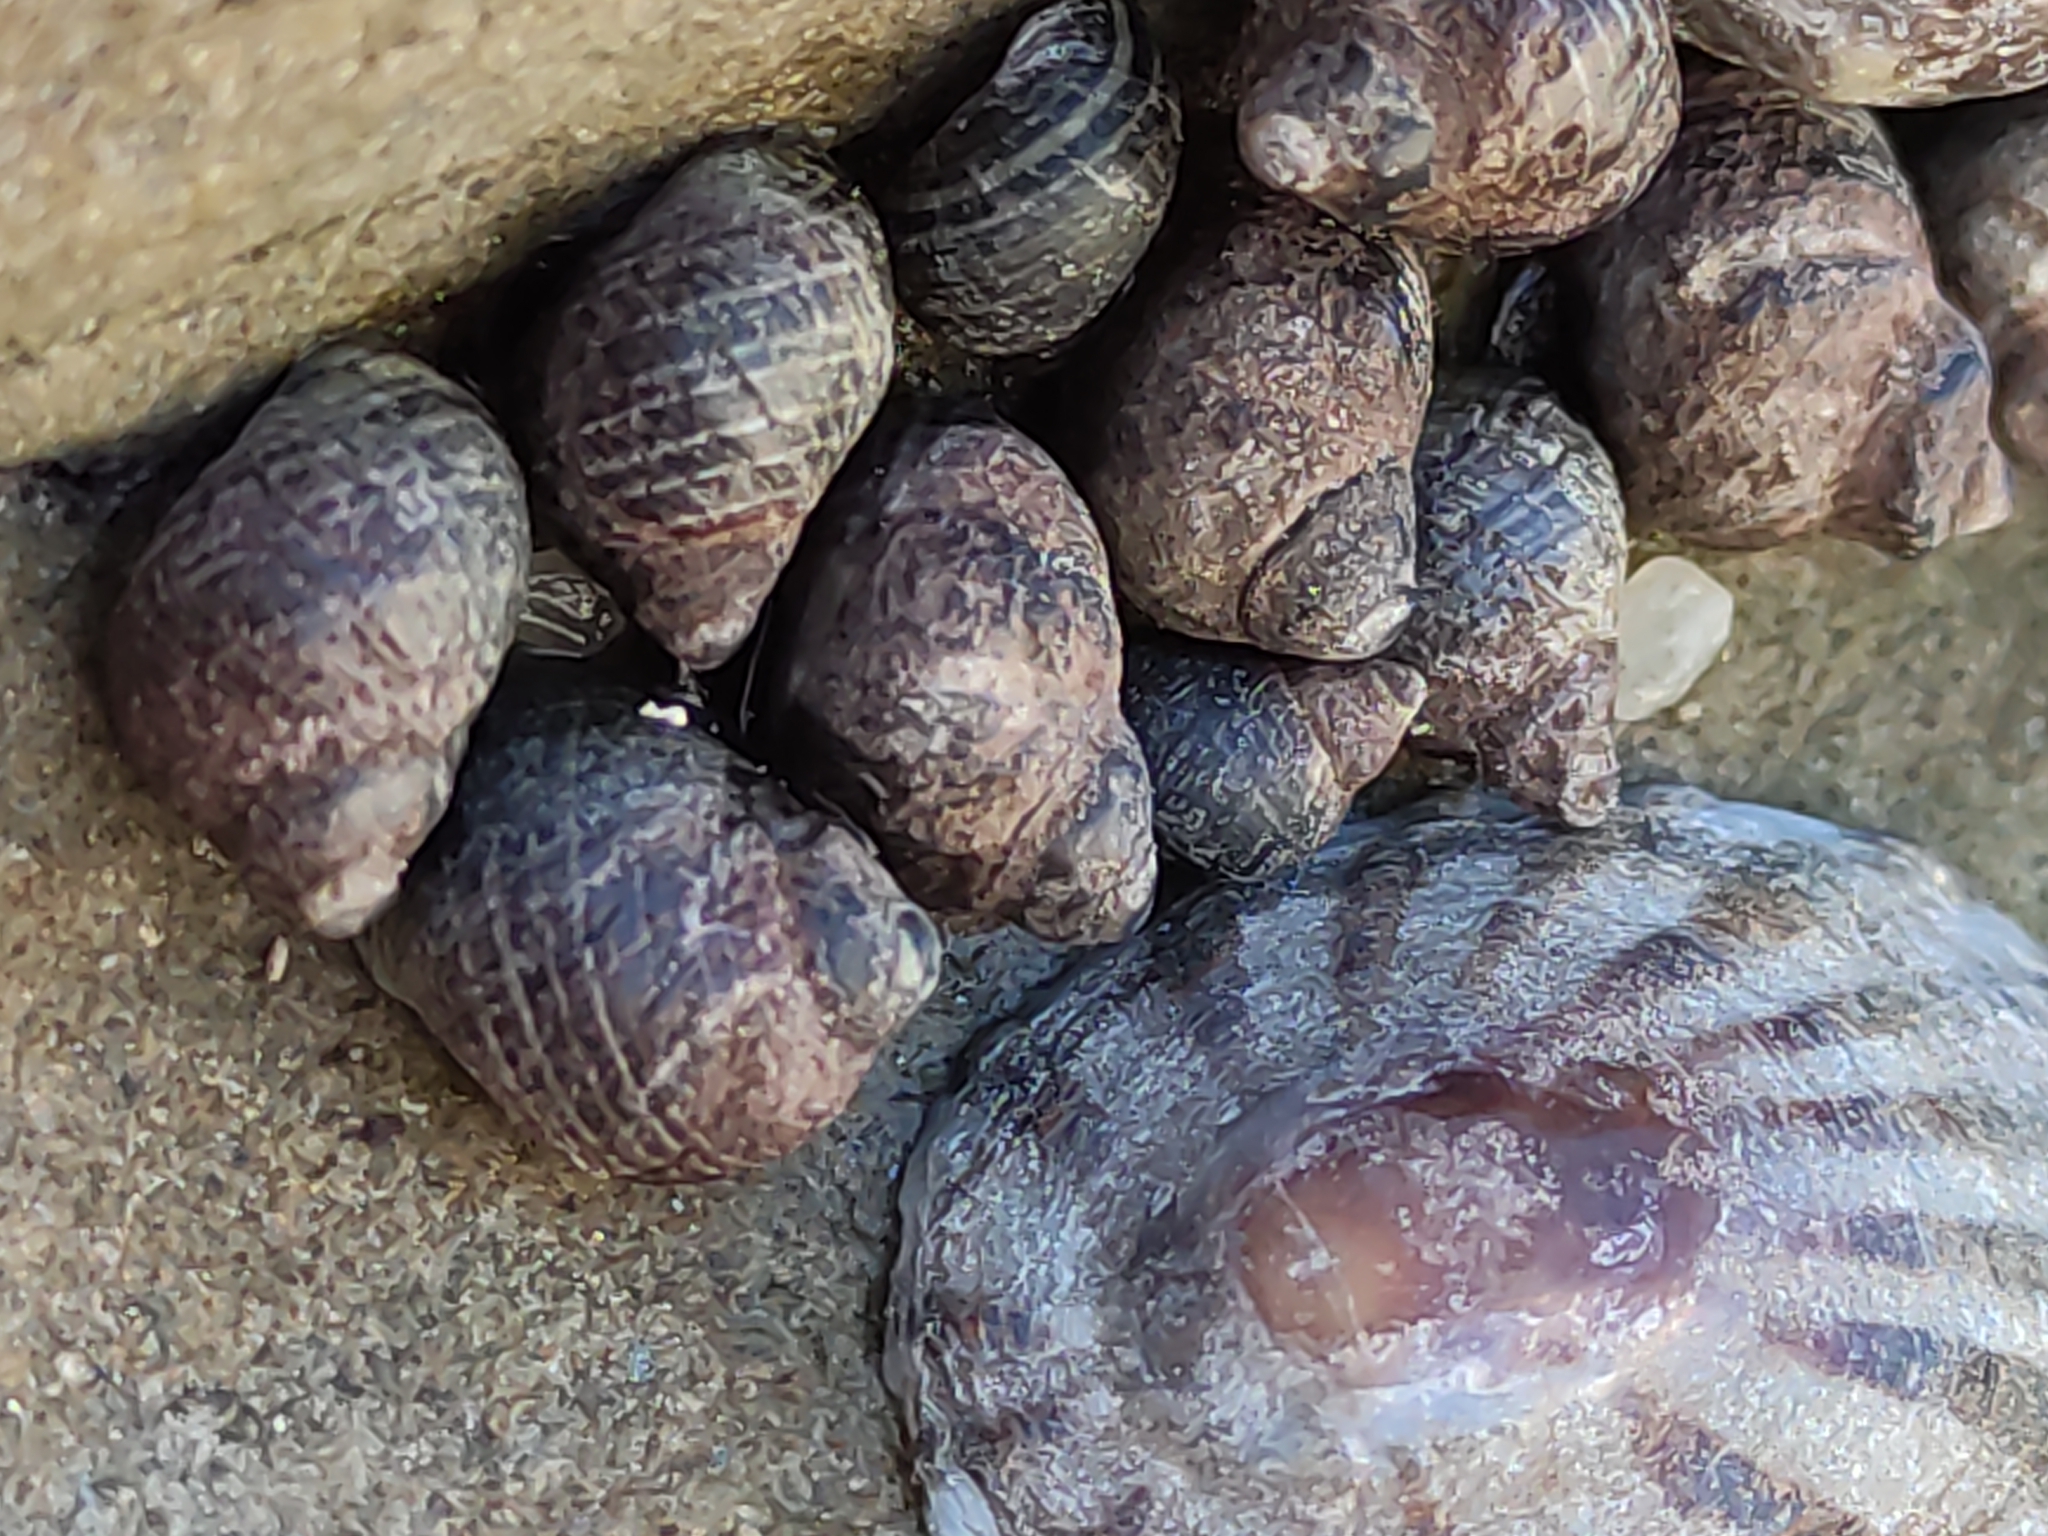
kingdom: Animalia
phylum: Mollusca
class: Gastropoda
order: Littorinimorpha
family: Littorinidae
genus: Austrolittorina
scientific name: Austrolittorina cincta
